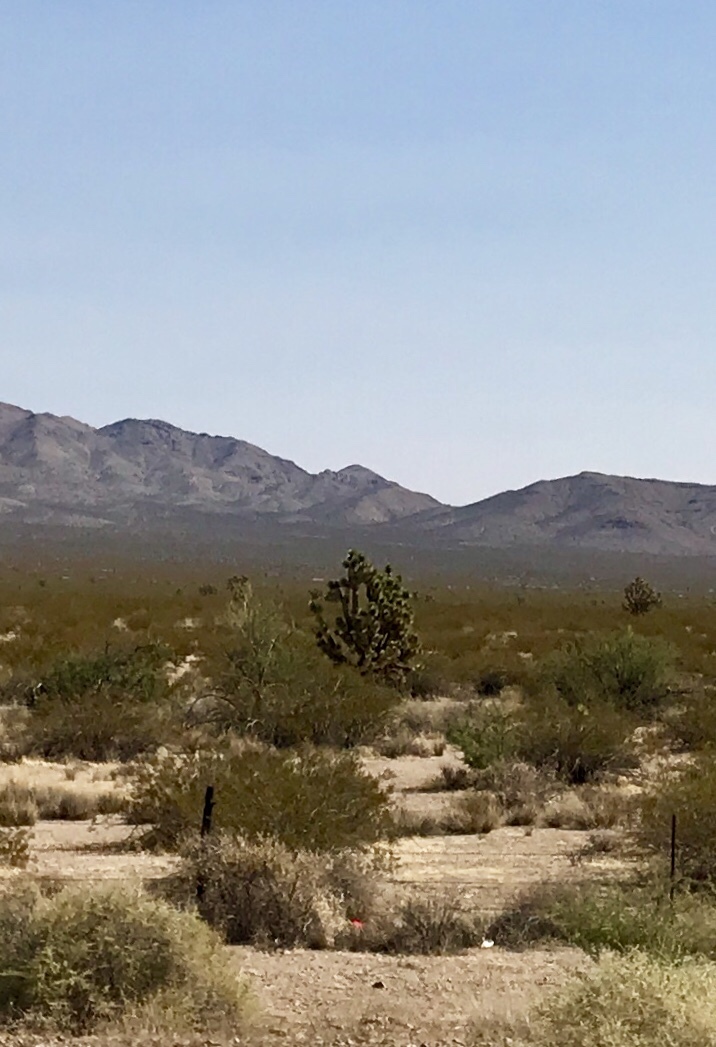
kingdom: Plantae
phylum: Tracheophyta
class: Liliopsida
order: Asparagales
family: Asparagaceae
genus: Yucca
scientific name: Yucca brevifolia
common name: Joshua tree
